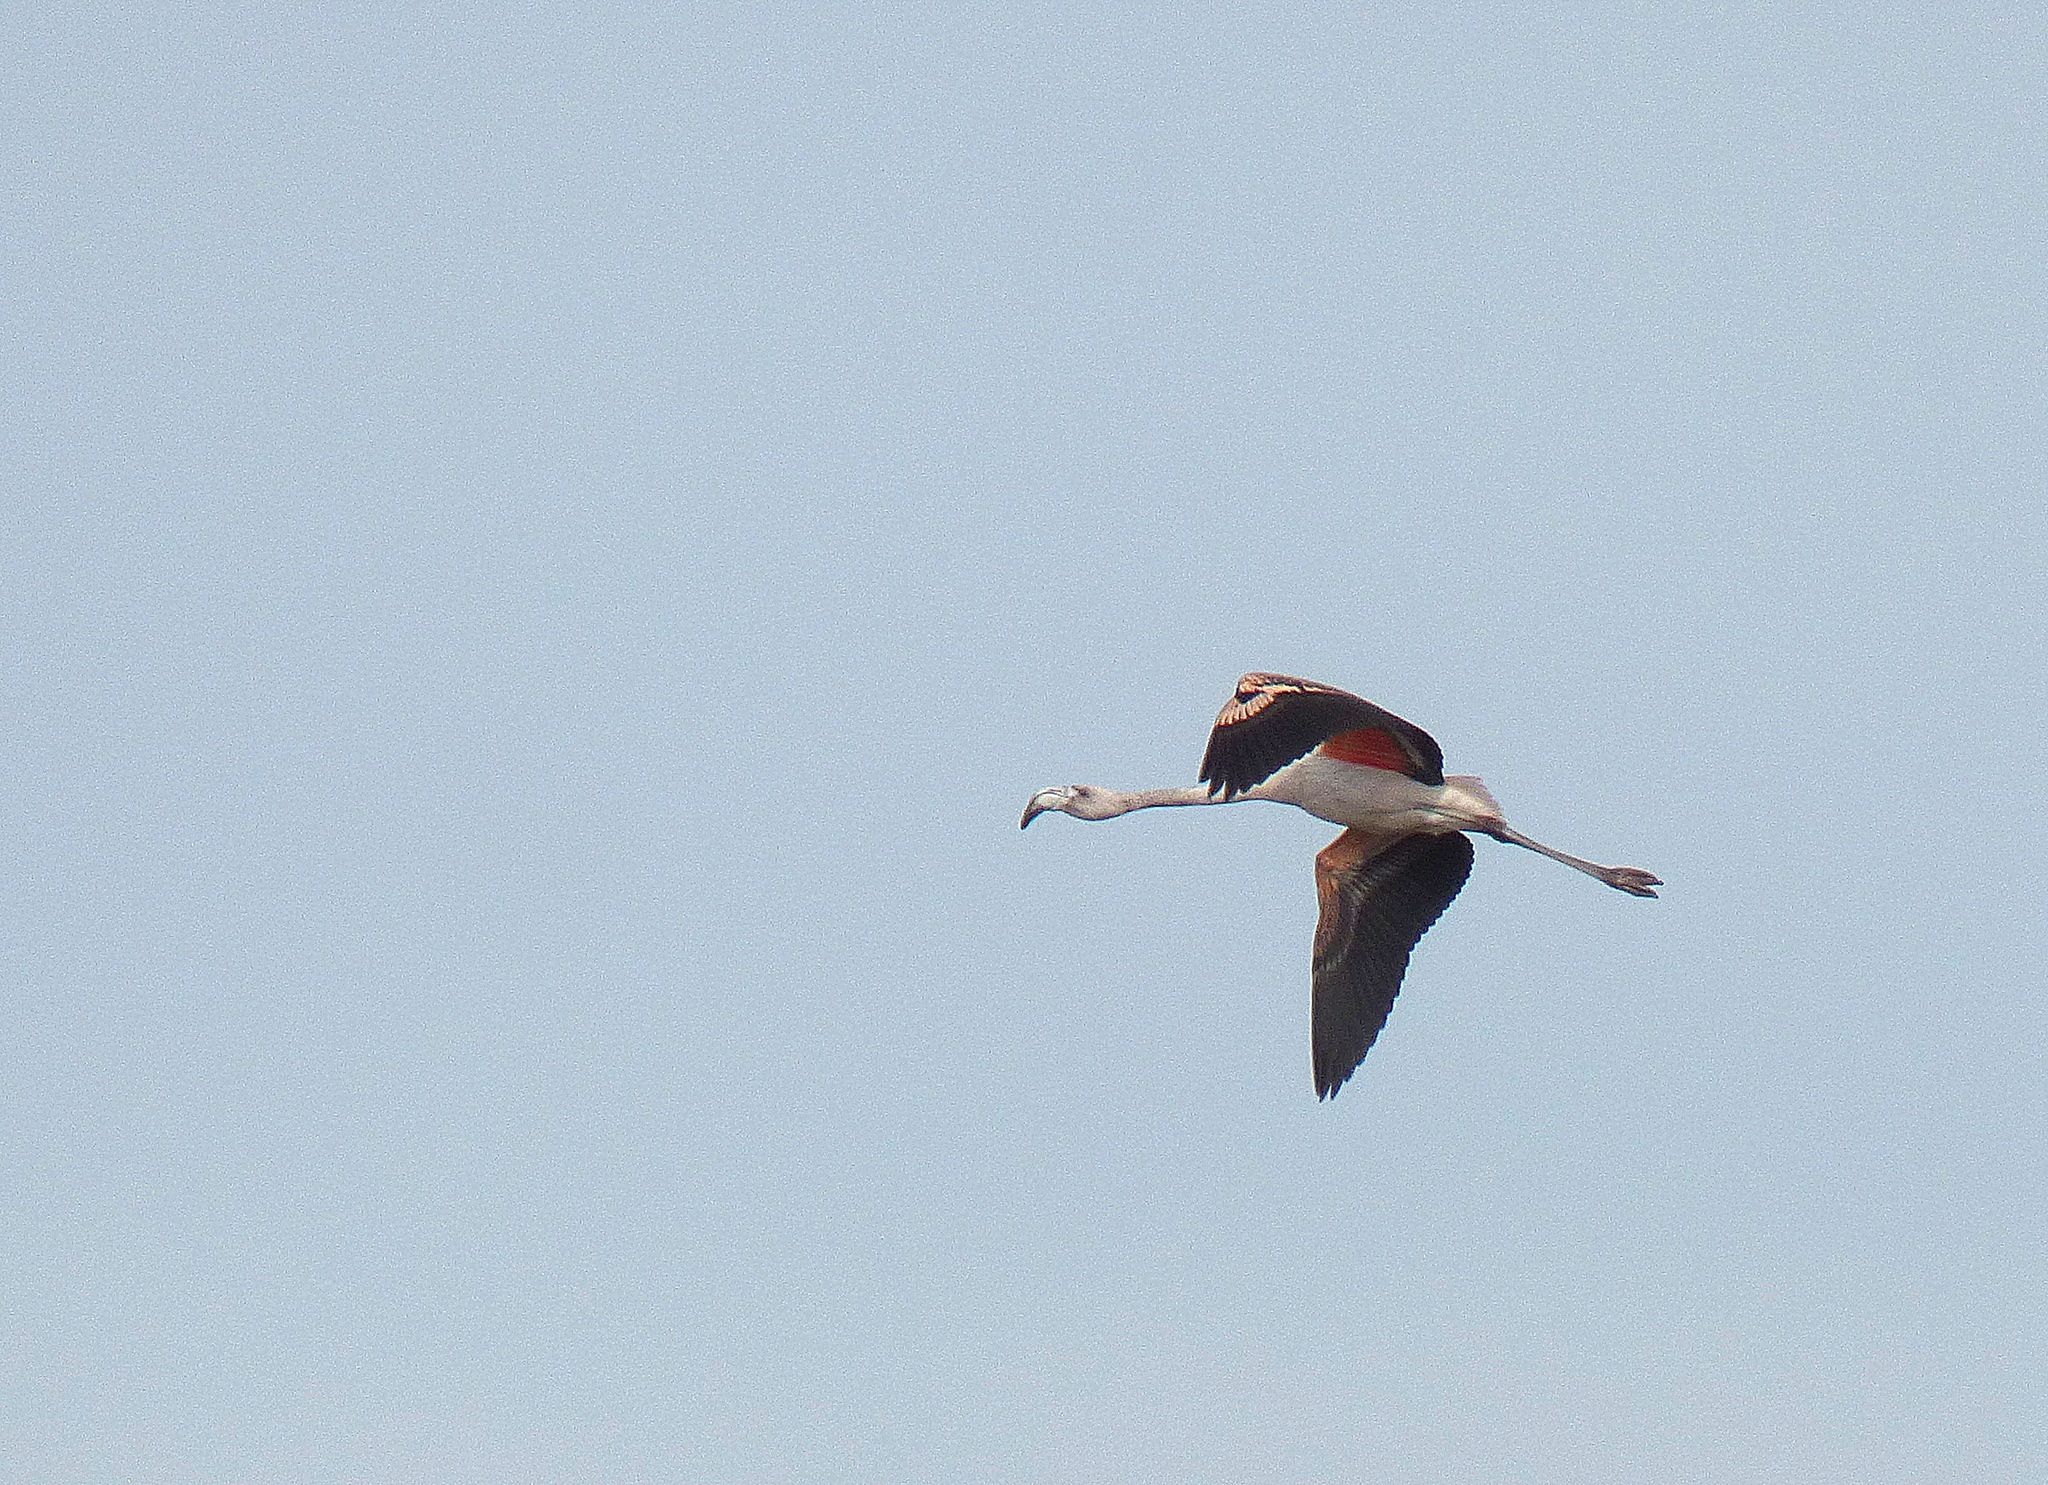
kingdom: Animalia
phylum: Chordata
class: Aves
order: Phoenicopteriformes
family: Phoenicopteridae
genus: Phoenicopterus
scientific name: Phoenicopterus chilensis
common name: Chilean flamingo
